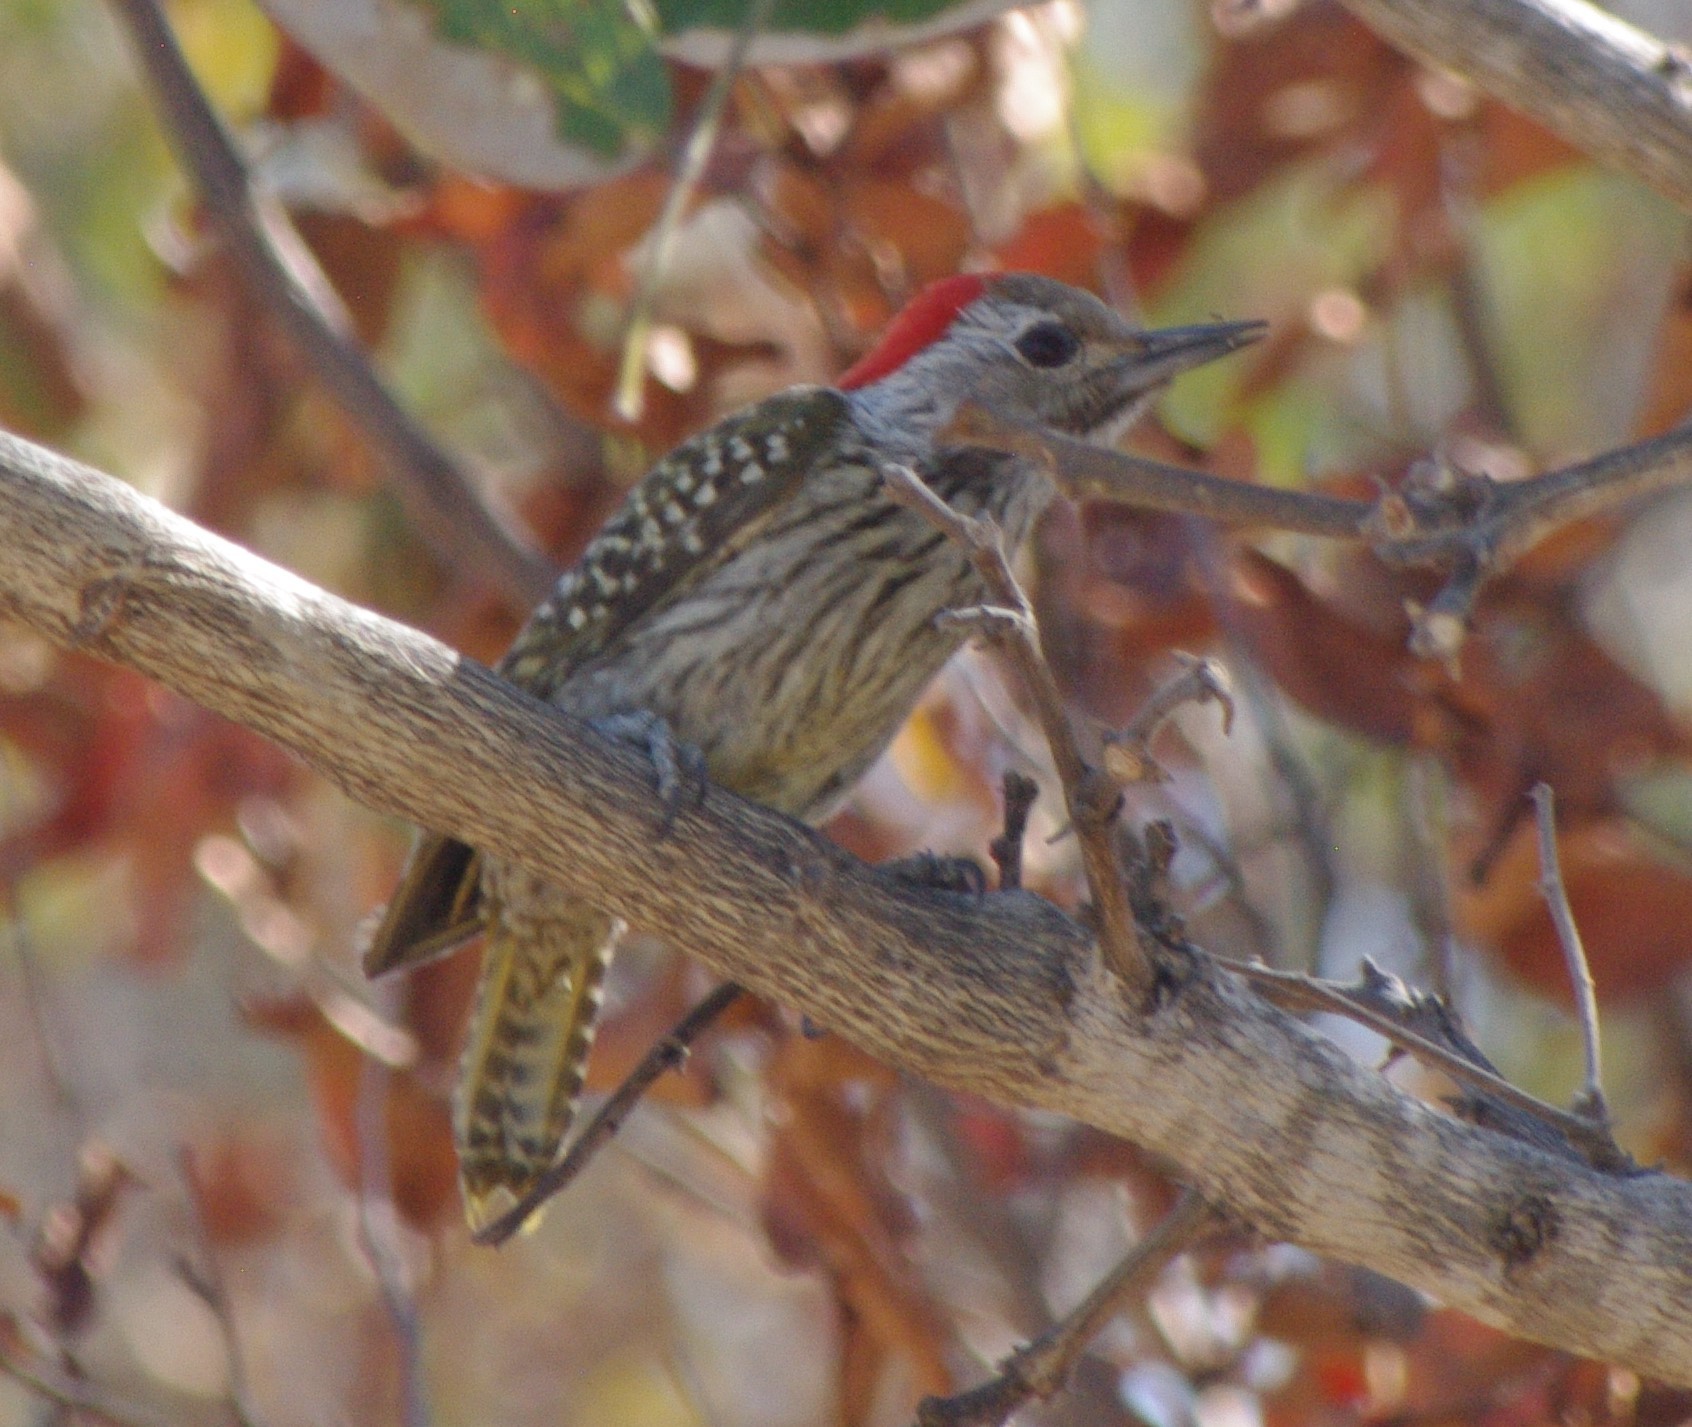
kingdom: Animalia
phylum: Chordata
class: Aves
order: Piciformes
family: Picidae
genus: Dendropicos
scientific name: Dendropicos fuscescens
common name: Cardinal woodpecker
